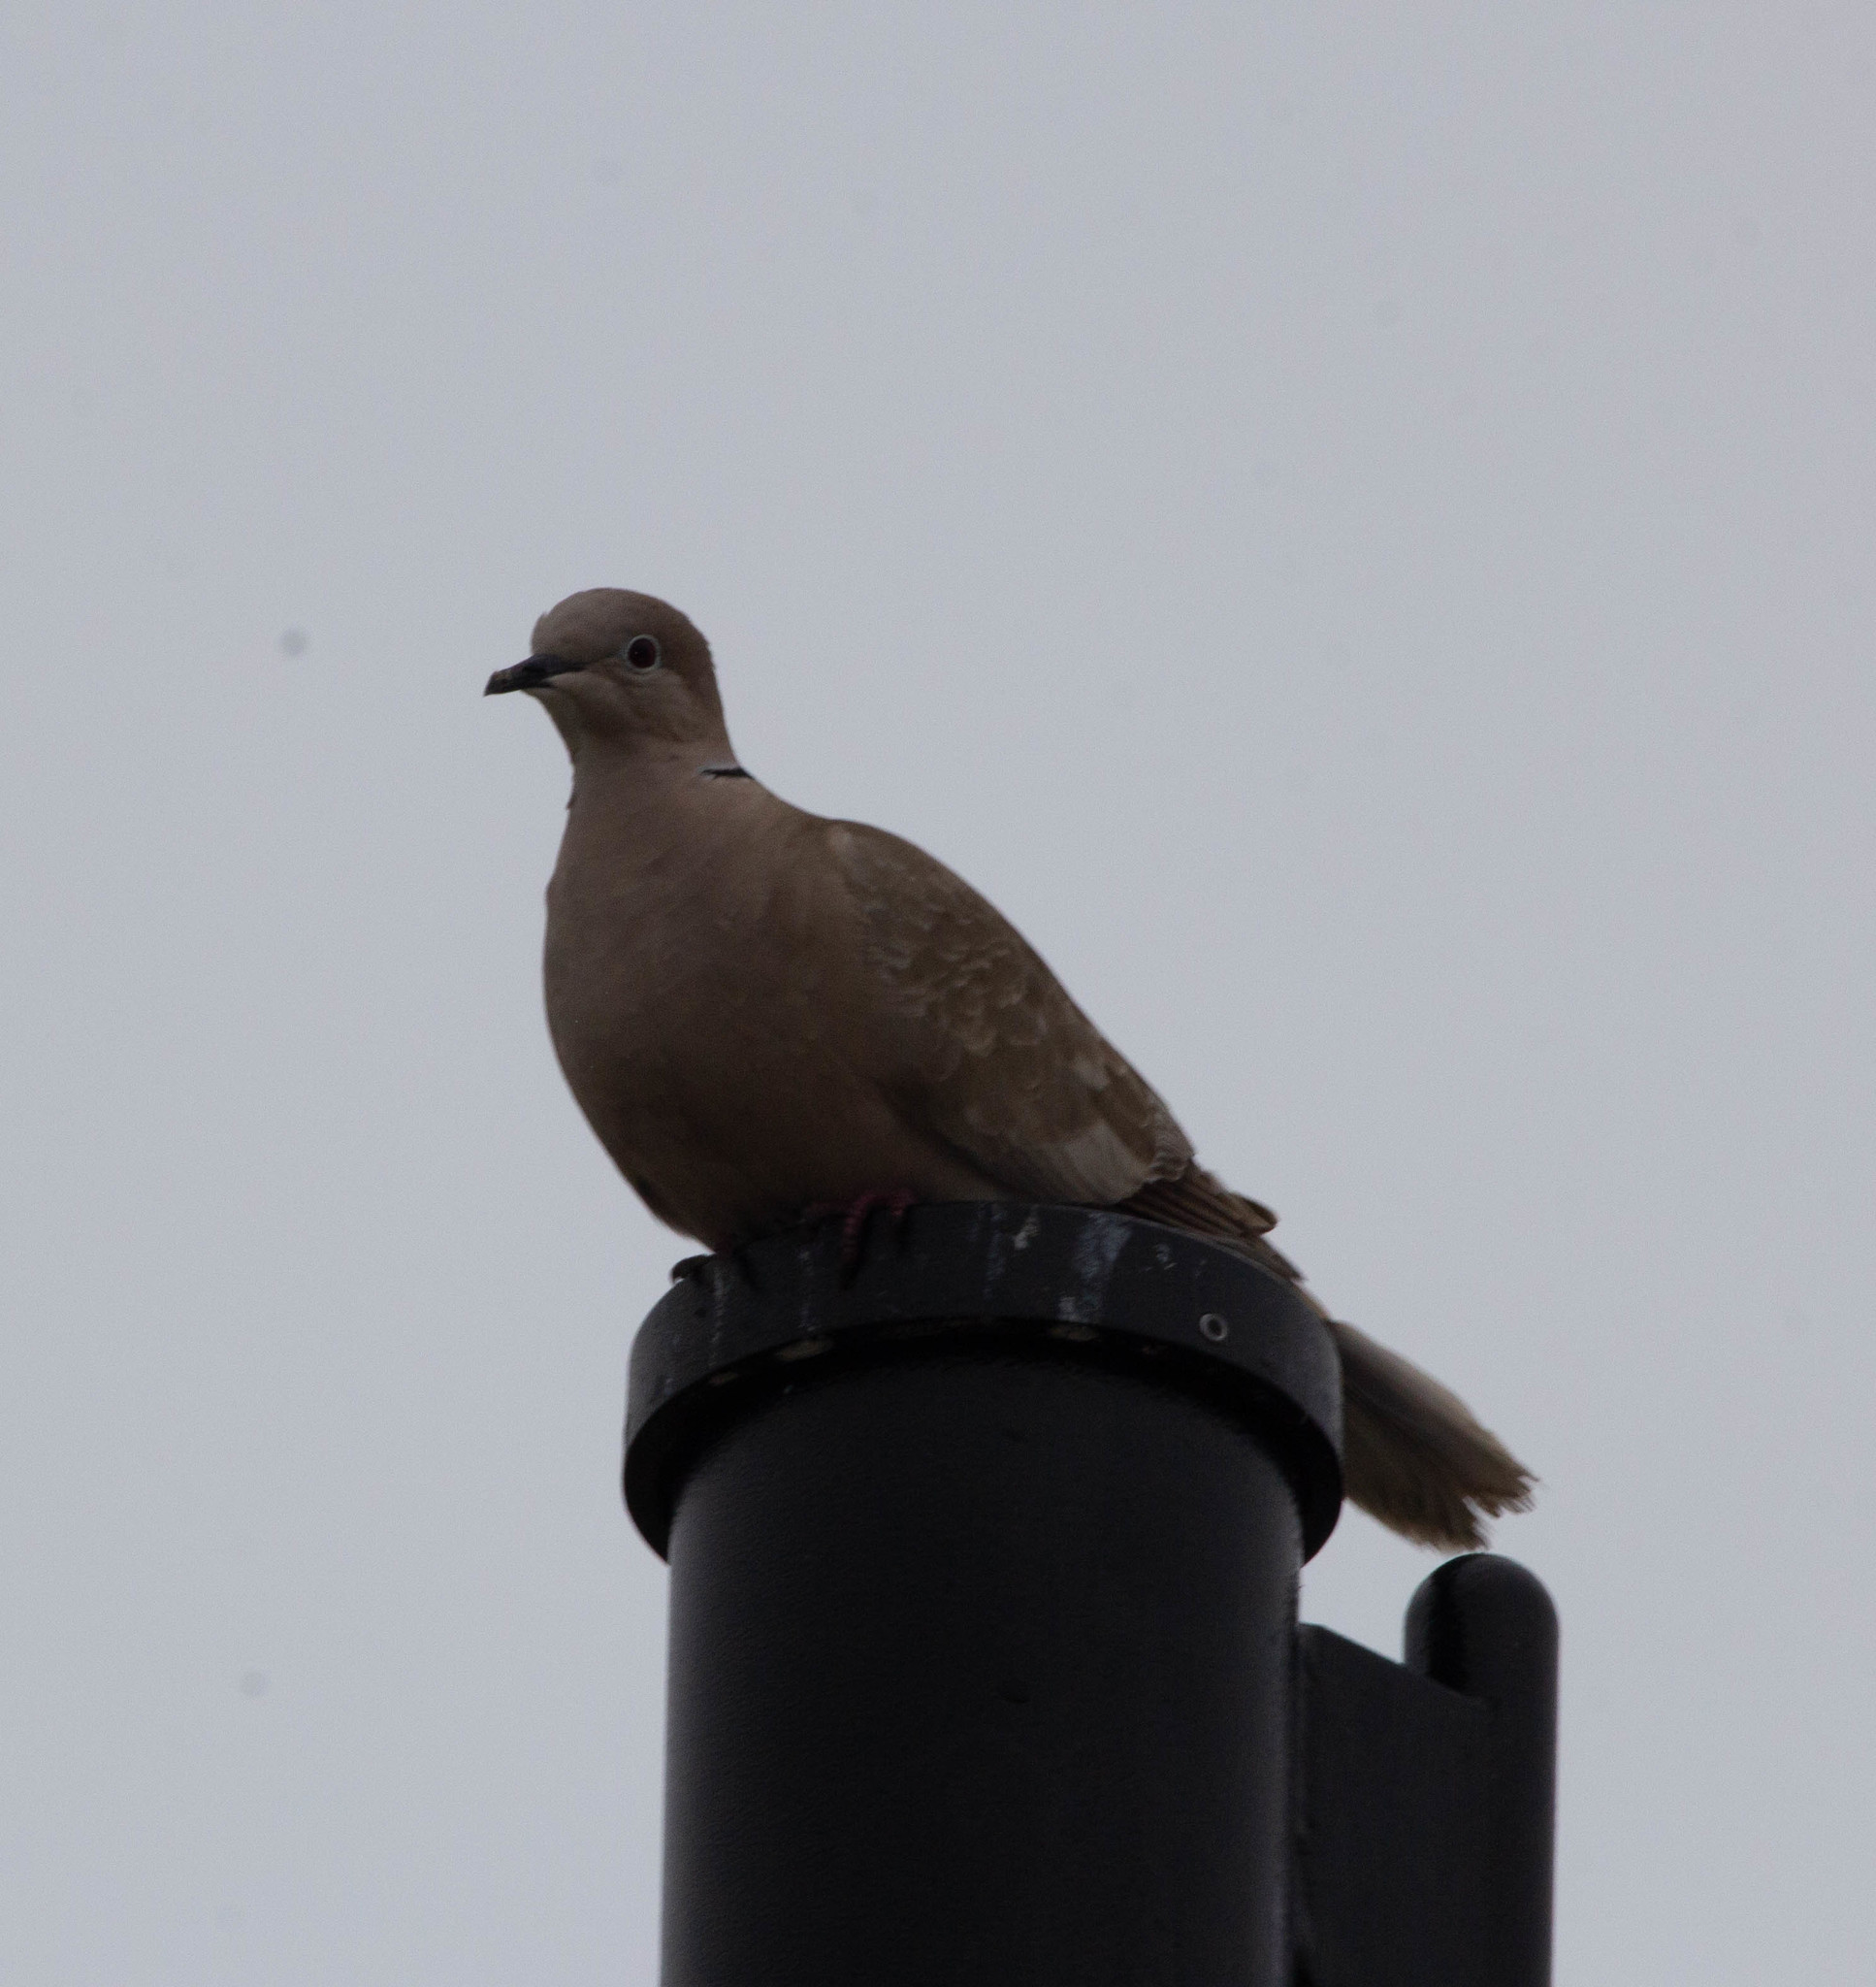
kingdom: Animalia
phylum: Chordata
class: Aves
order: Columbiformes
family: Columbidae
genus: Streptopelia
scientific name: Streptopelia decaocto
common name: Eurasian collared dove
